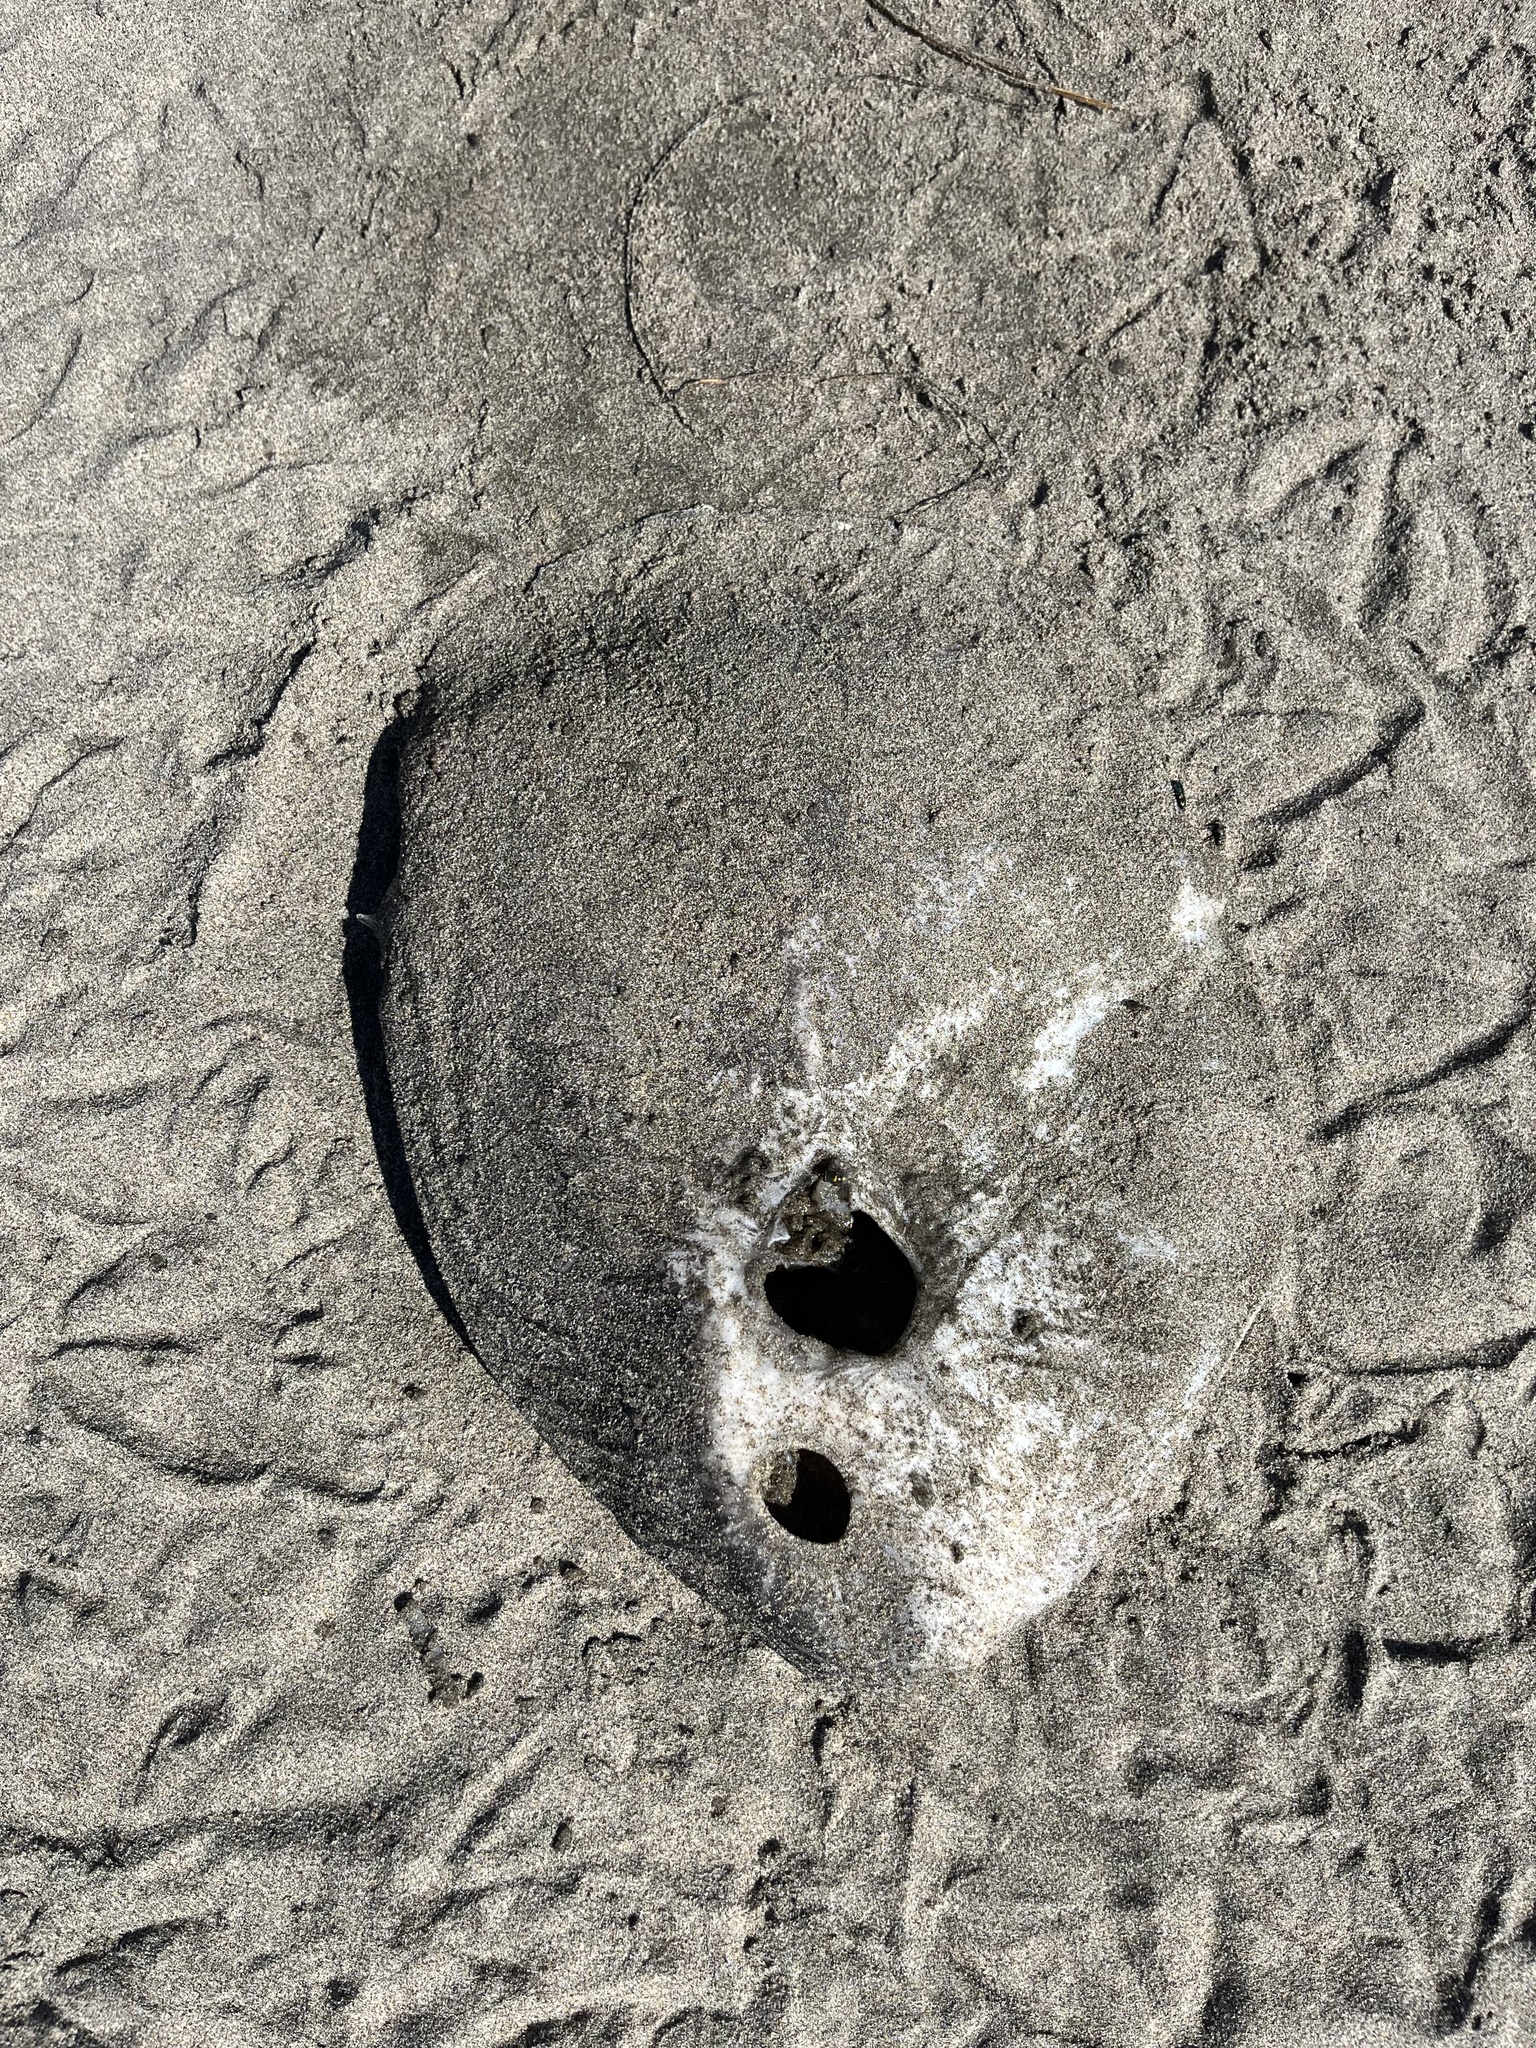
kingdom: Animalia
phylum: Chordata
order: Tetraodontiformes
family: Molidae
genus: Mola
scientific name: Mola mola
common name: Ocean sunfish
